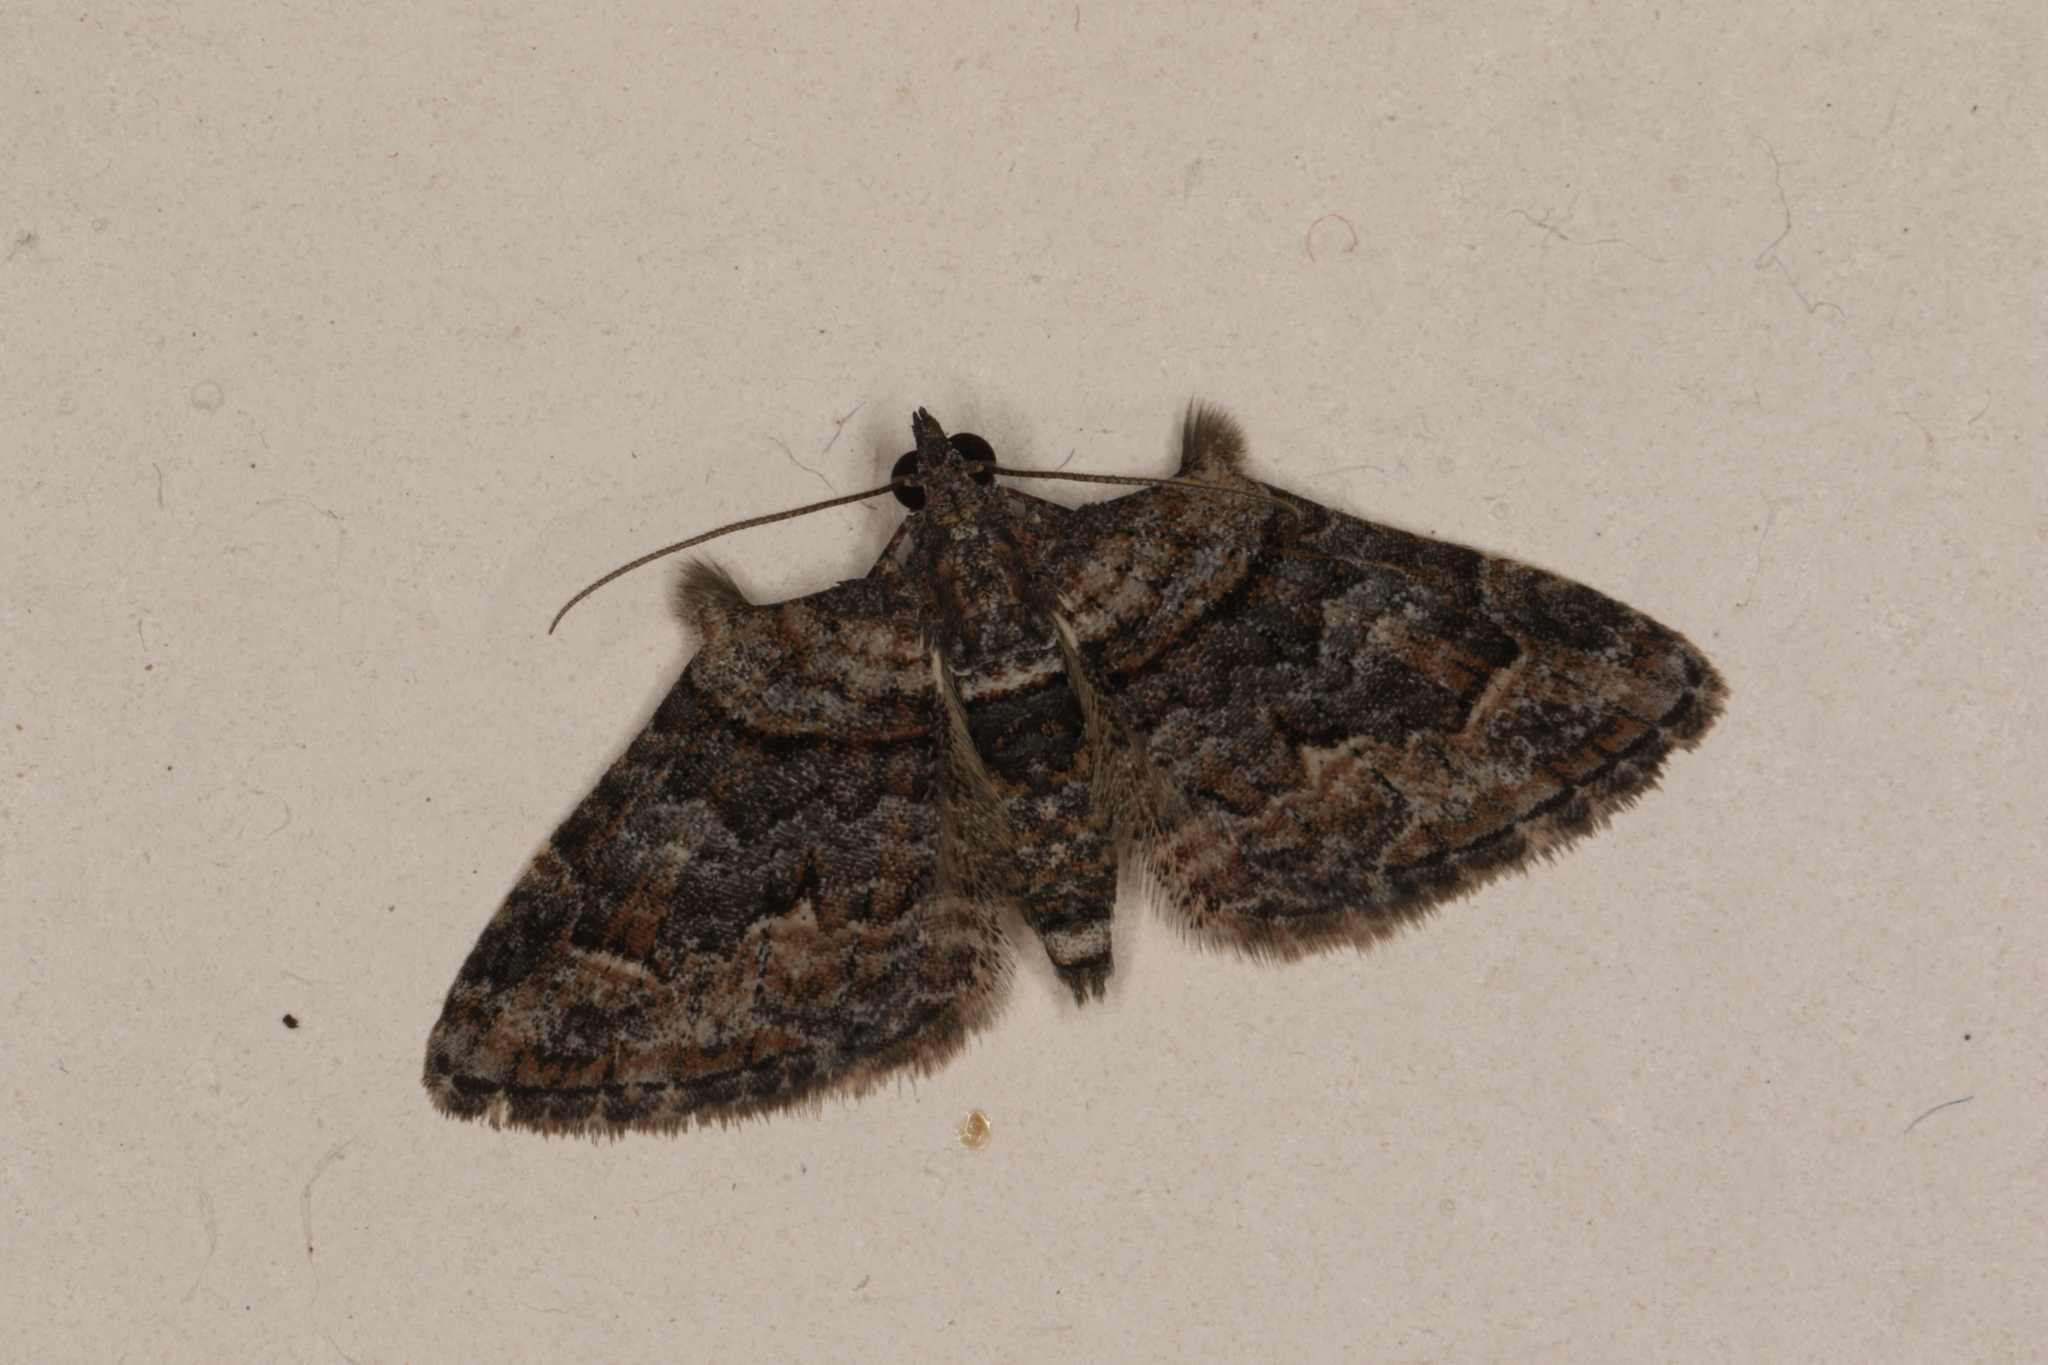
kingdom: Animalia
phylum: Arthropoda
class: Insecta
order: Lepidoptera
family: Geometridae
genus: Phrissogonus
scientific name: Phrissogonus laticostata
